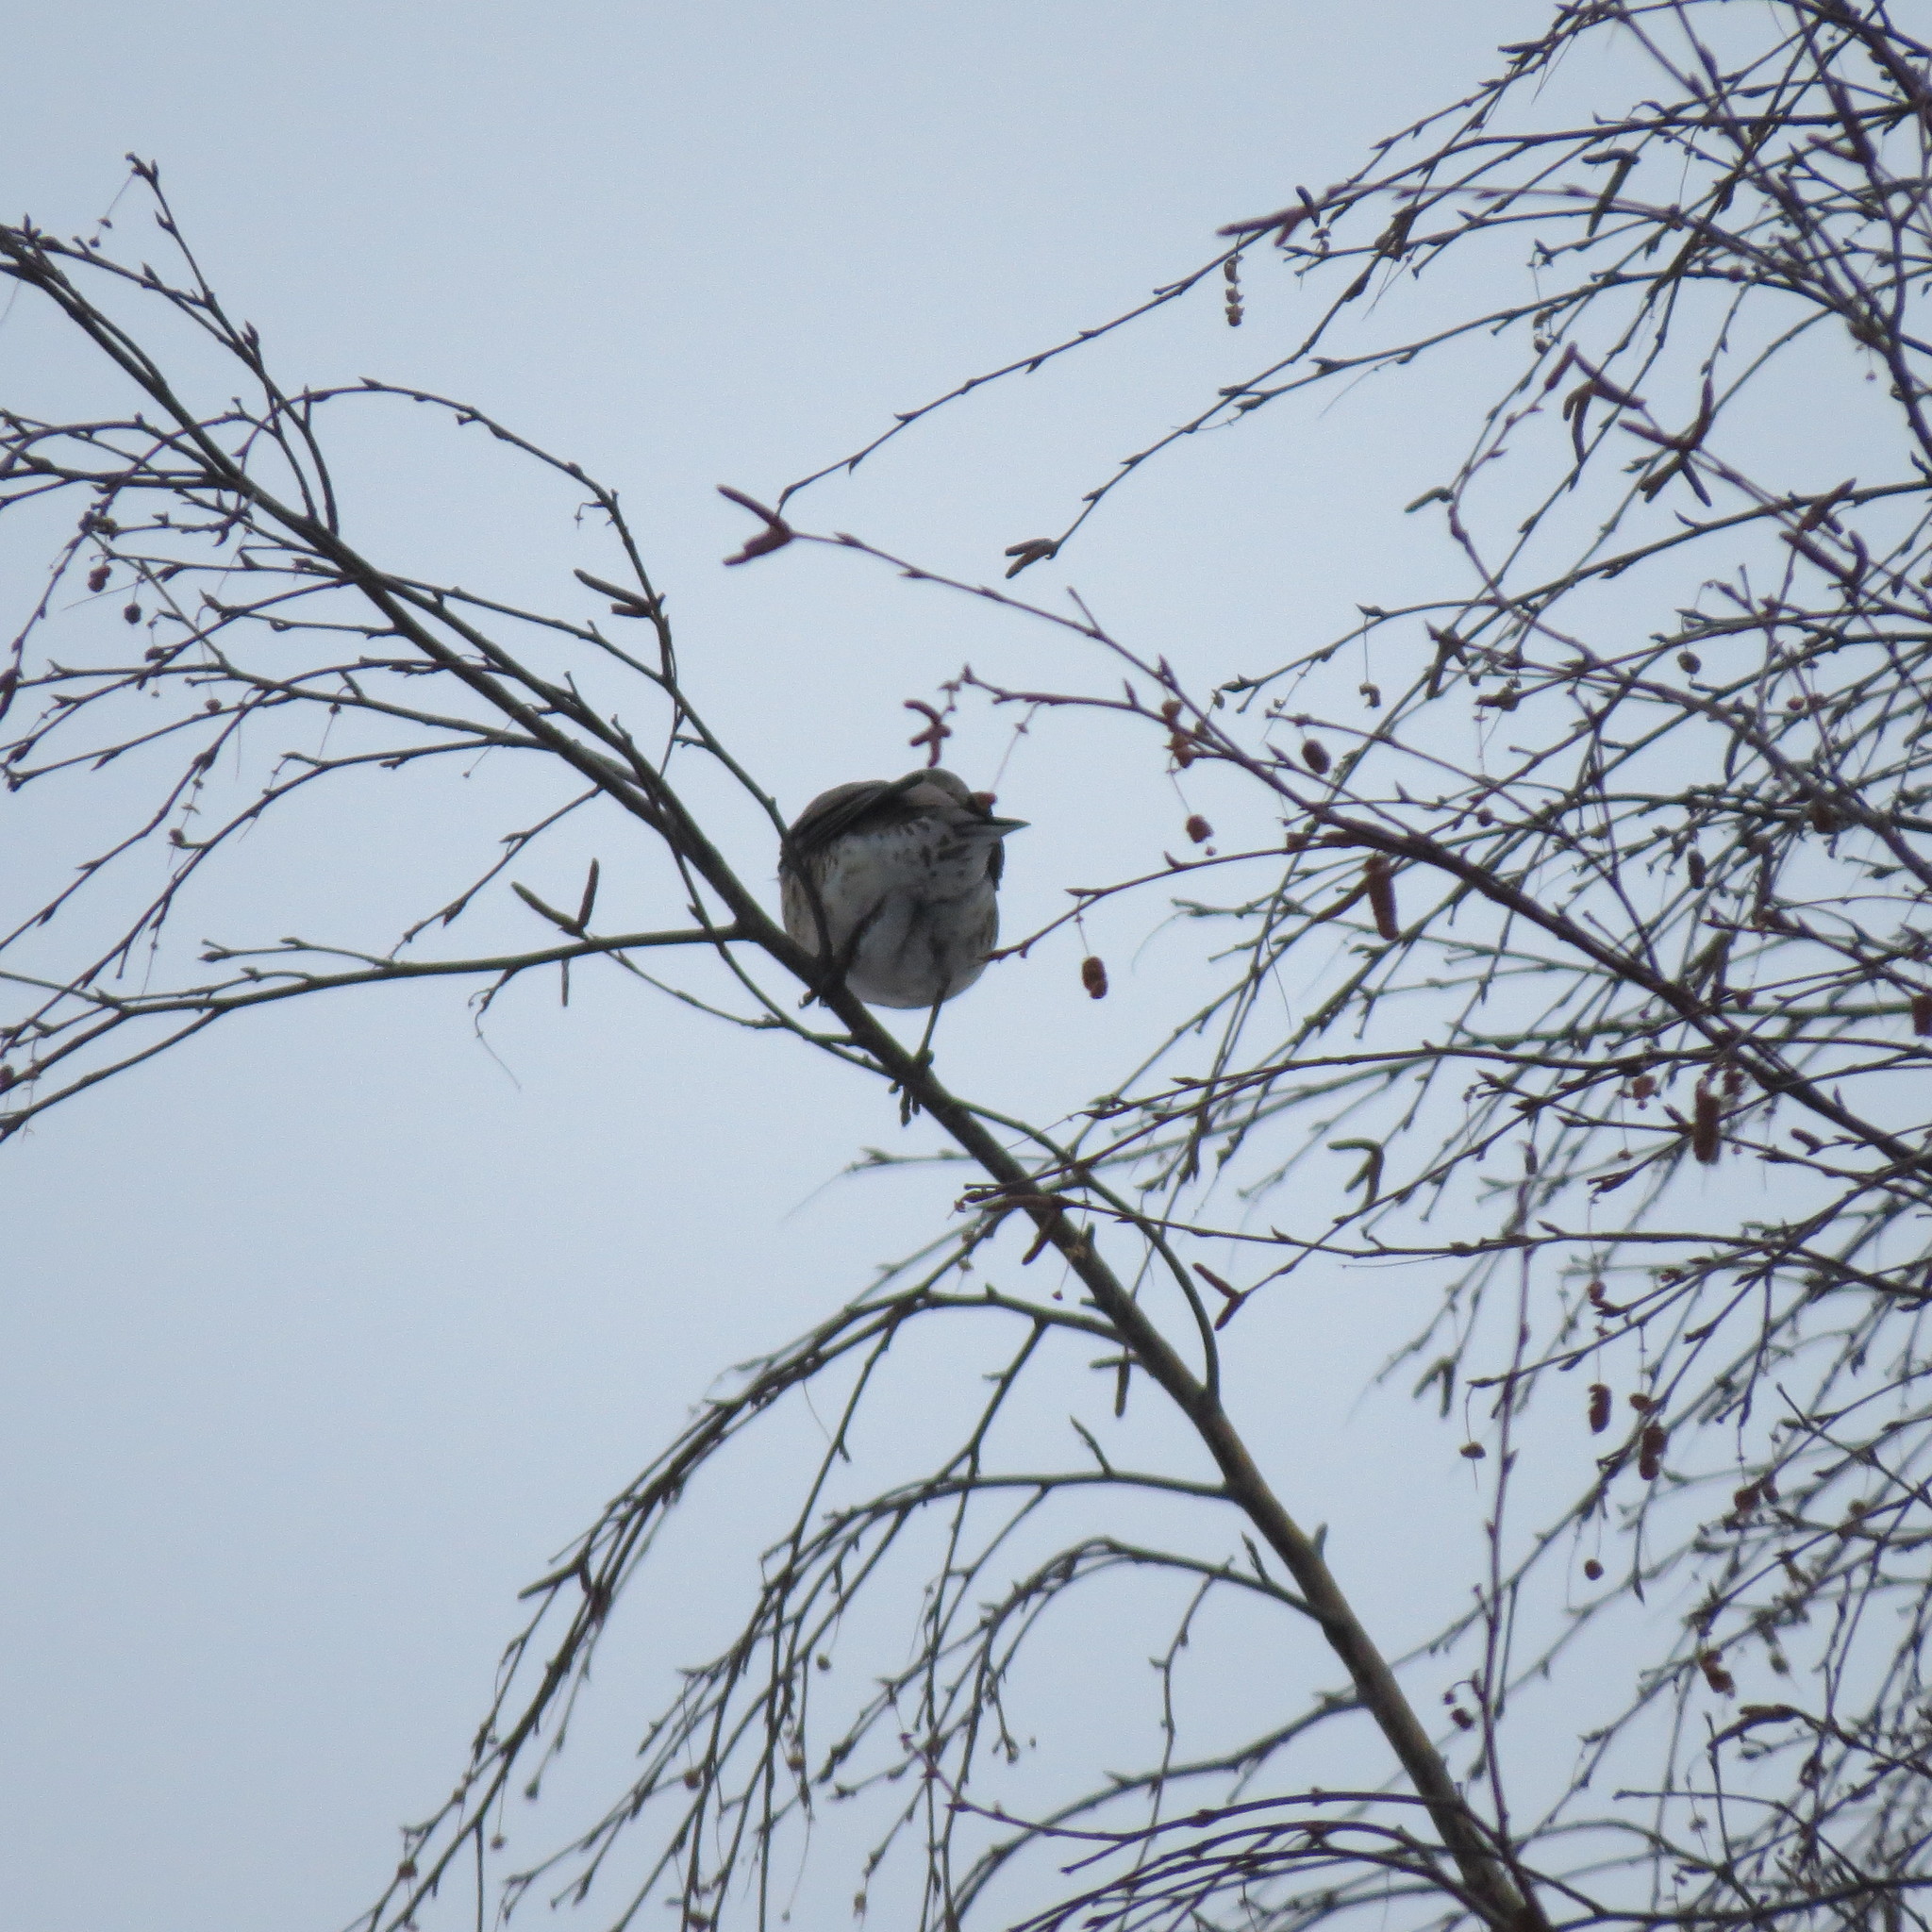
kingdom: Animalia
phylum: Chordata
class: Aves
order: Passeriformes
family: Turdidae
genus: Turdus
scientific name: Turdus pilaris
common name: Fieldfare
